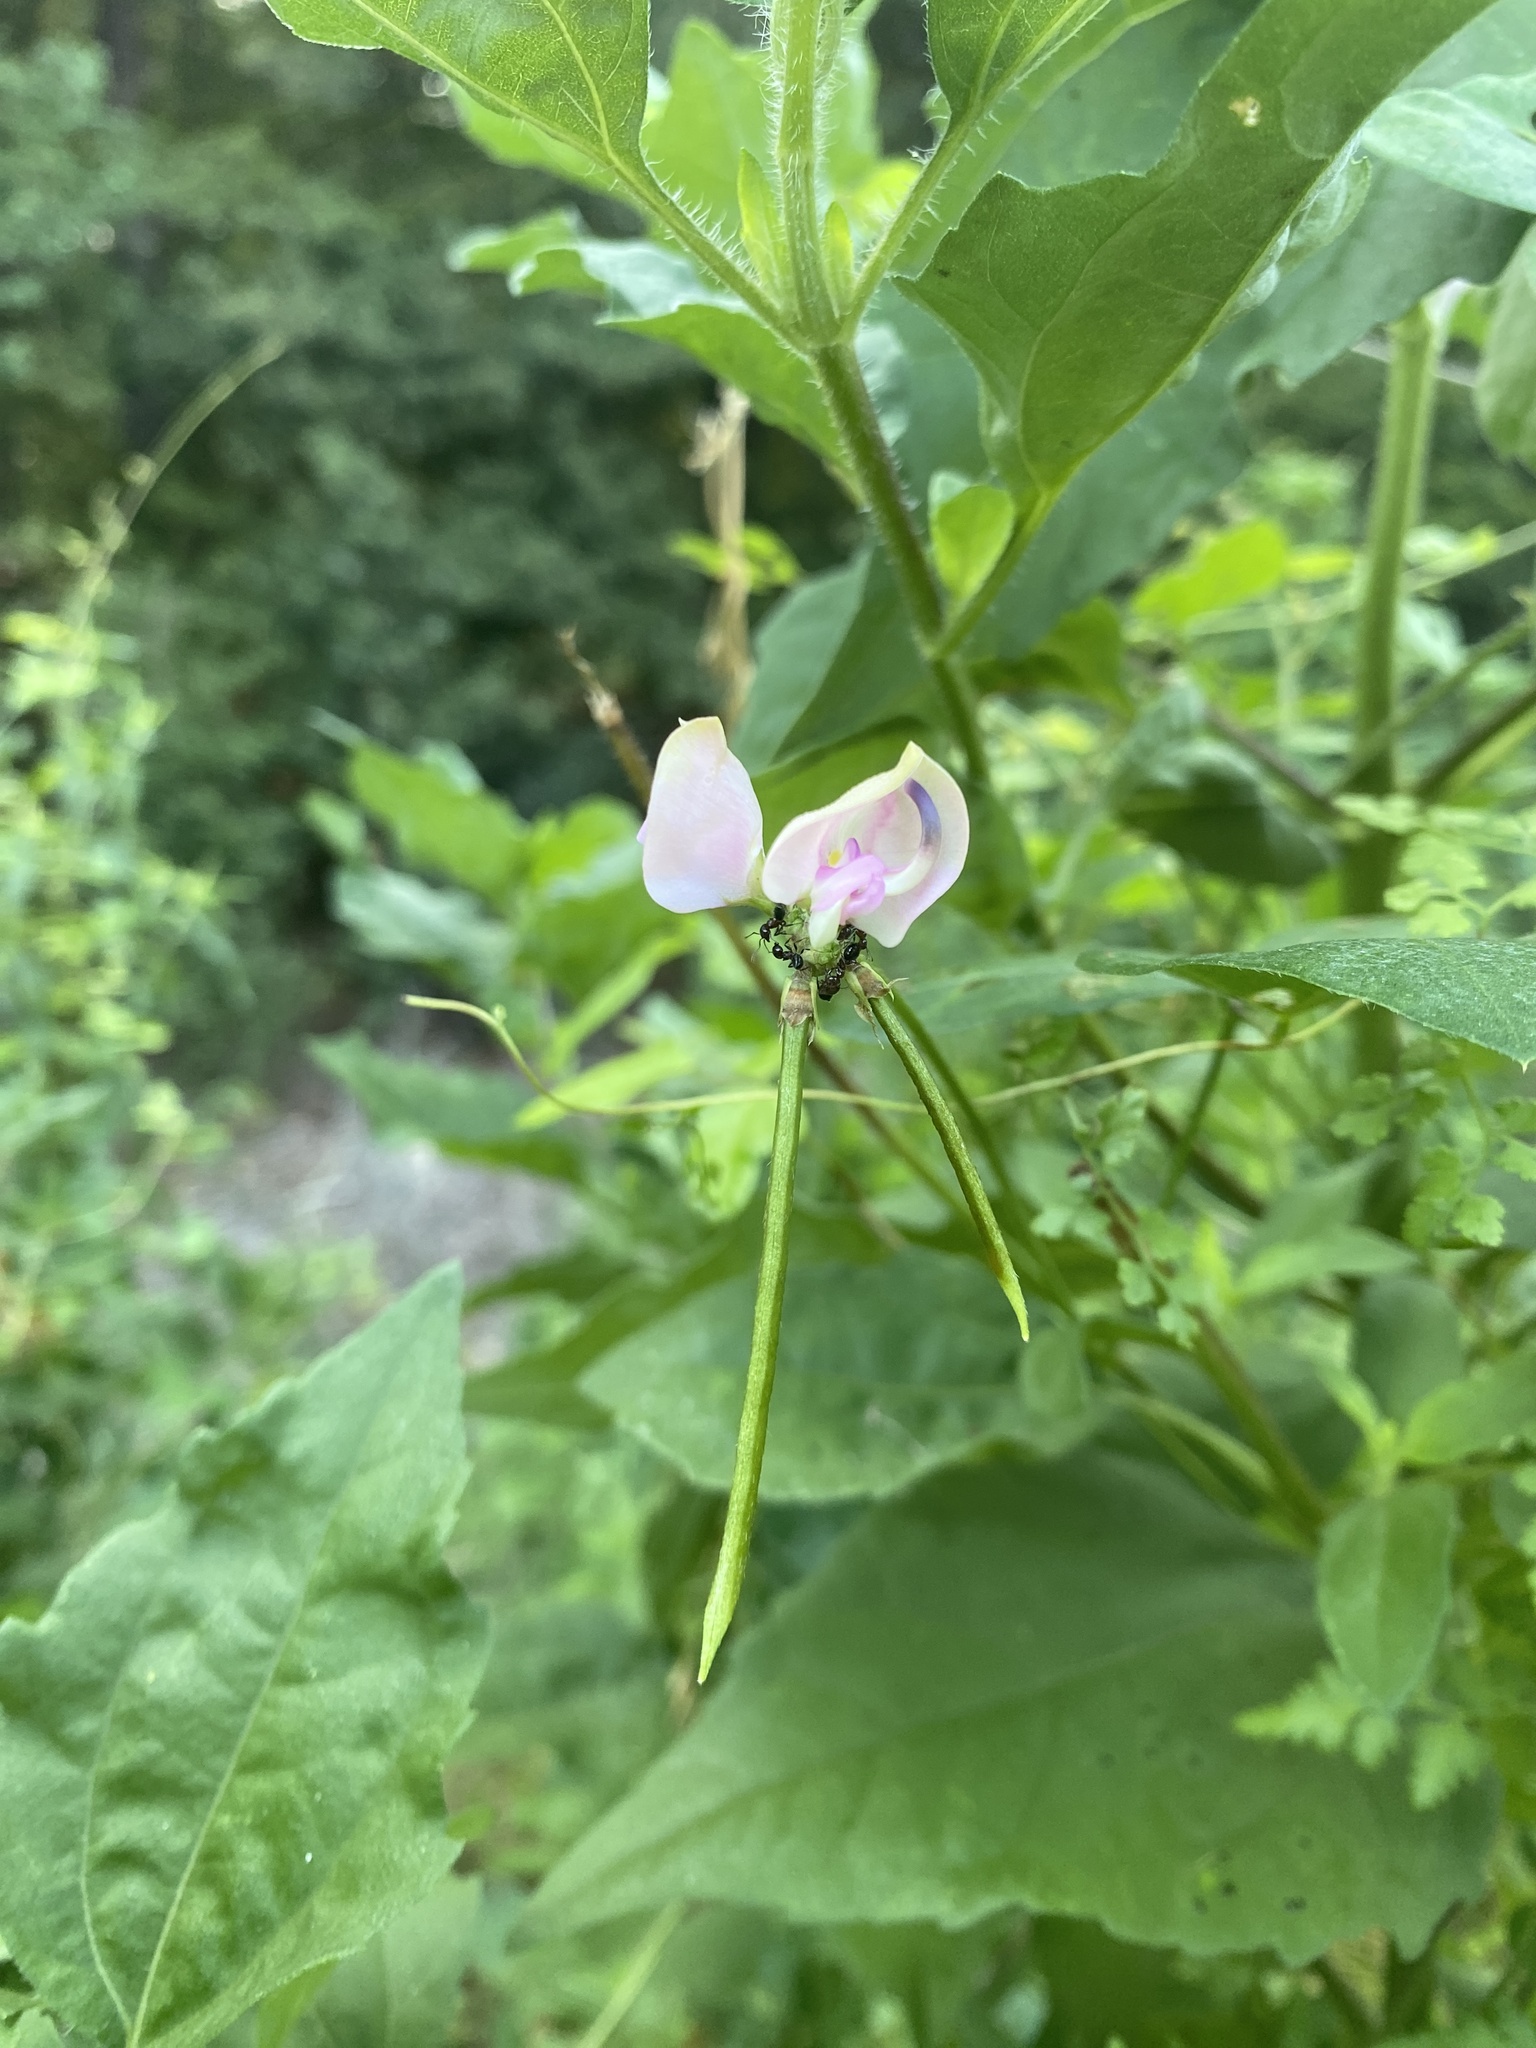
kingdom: Plantae
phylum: Tracheophyta
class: Magnoliopsida
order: Fabales
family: Fabaceae
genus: Strophostyles
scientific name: Strophostyles helvola
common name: Trailing wild bean
